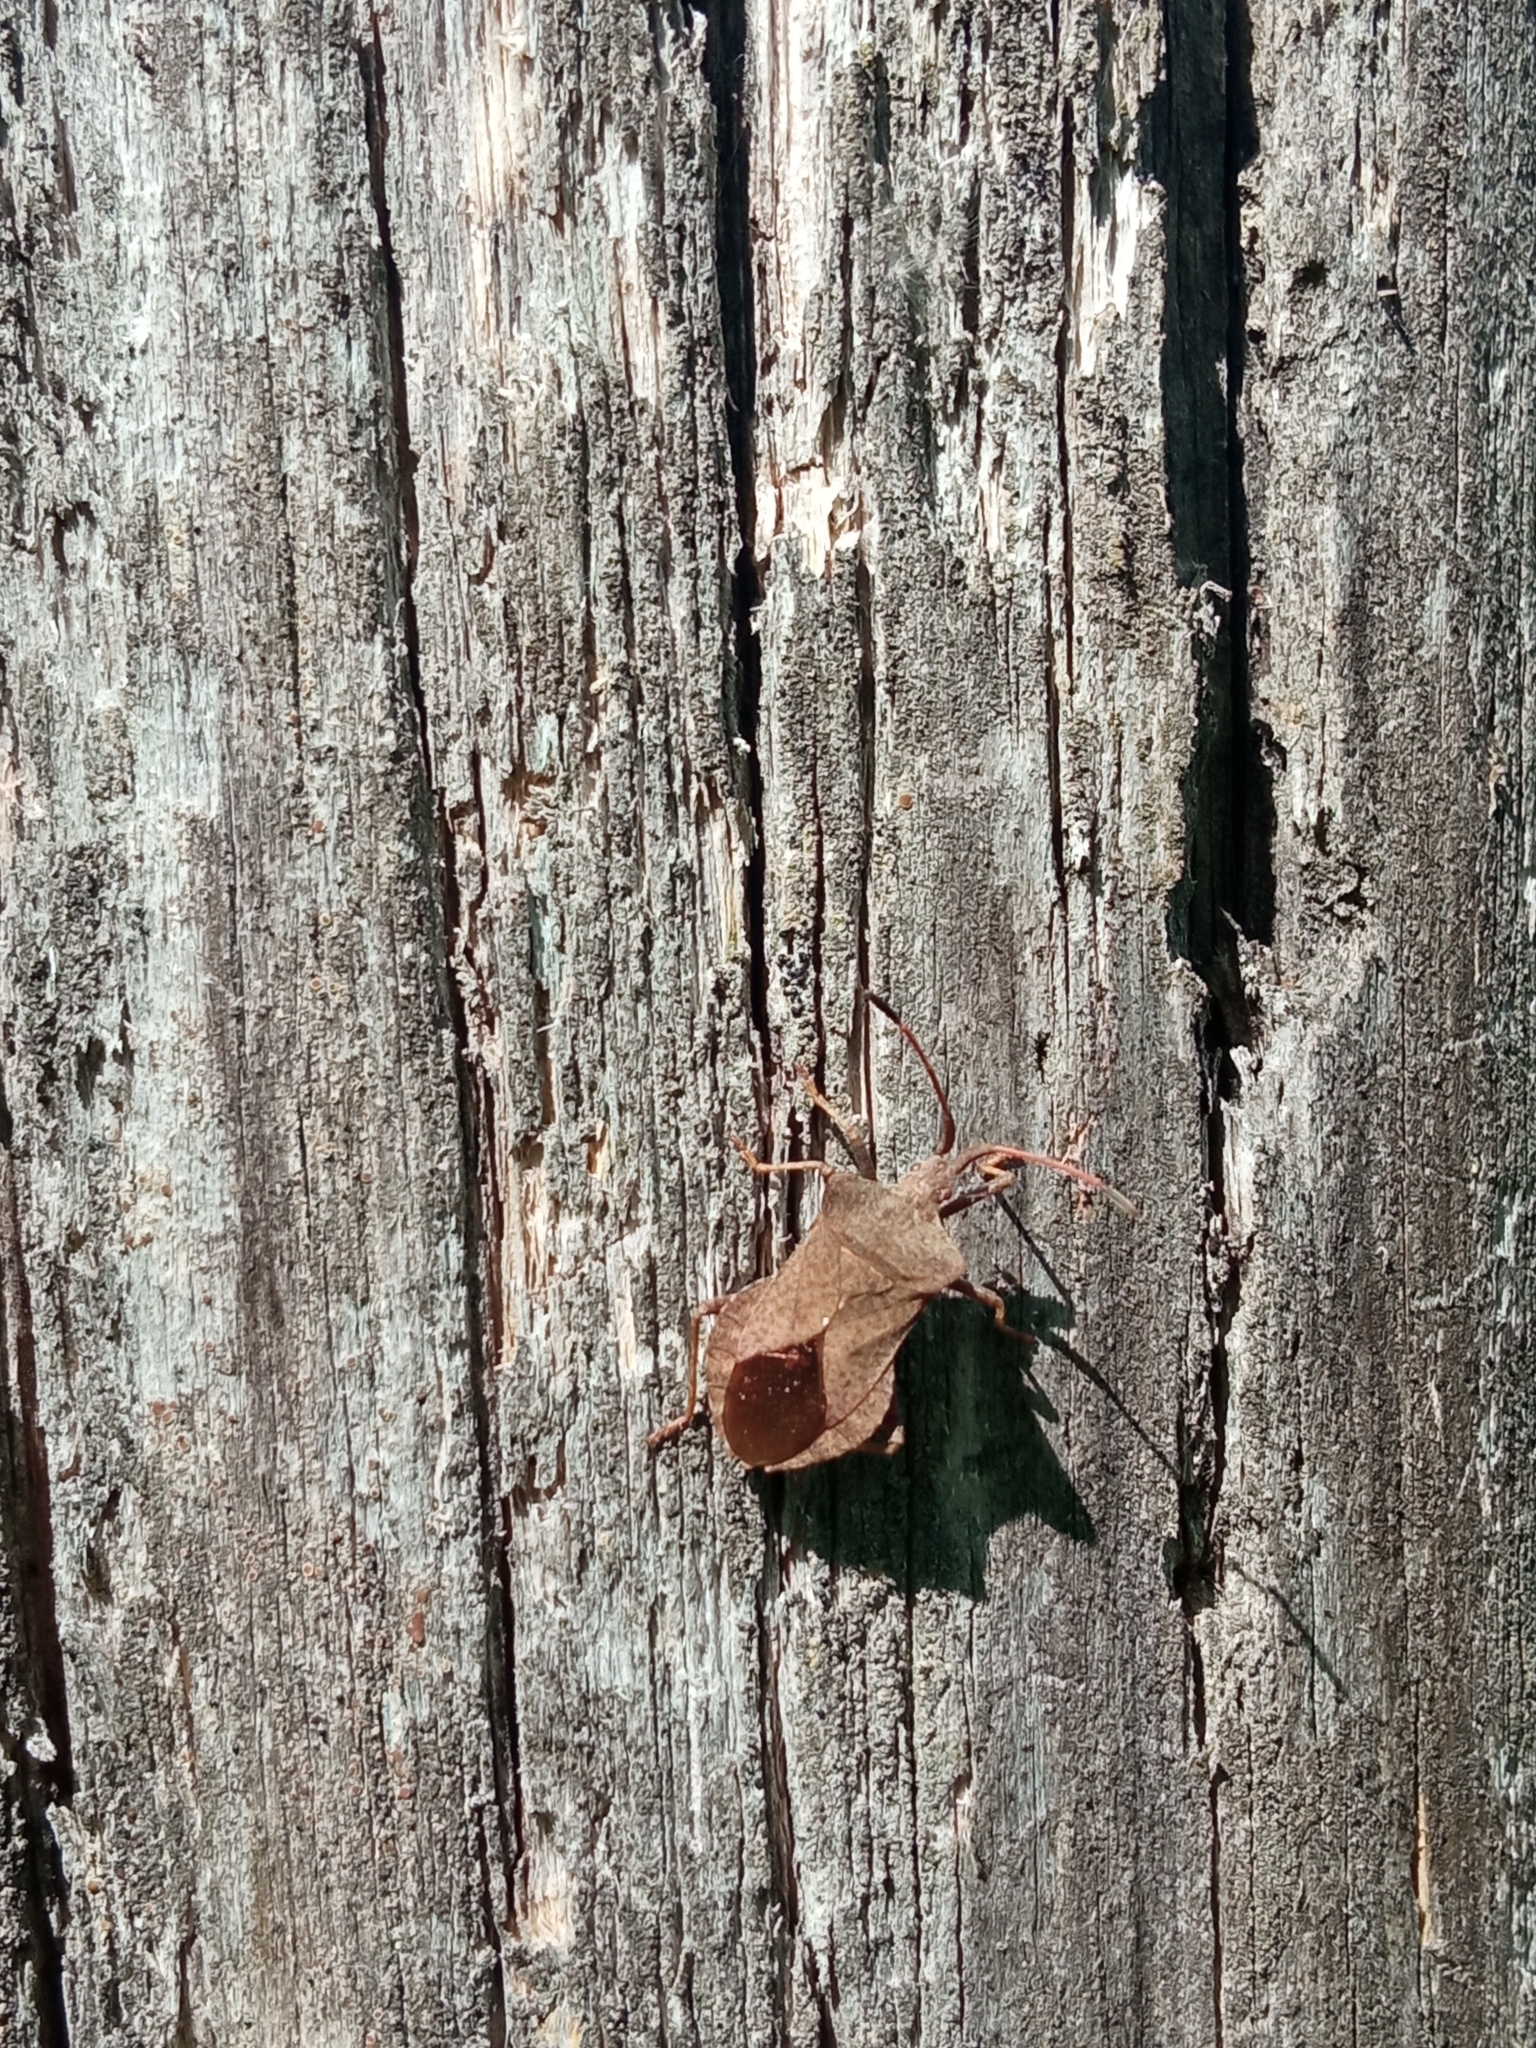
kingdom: Animalia
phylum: Arthropoda
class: Insecta
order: Hemiptera
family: Coreidae
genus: Coreus
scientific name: Coreus marginatus
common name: Dock bug
